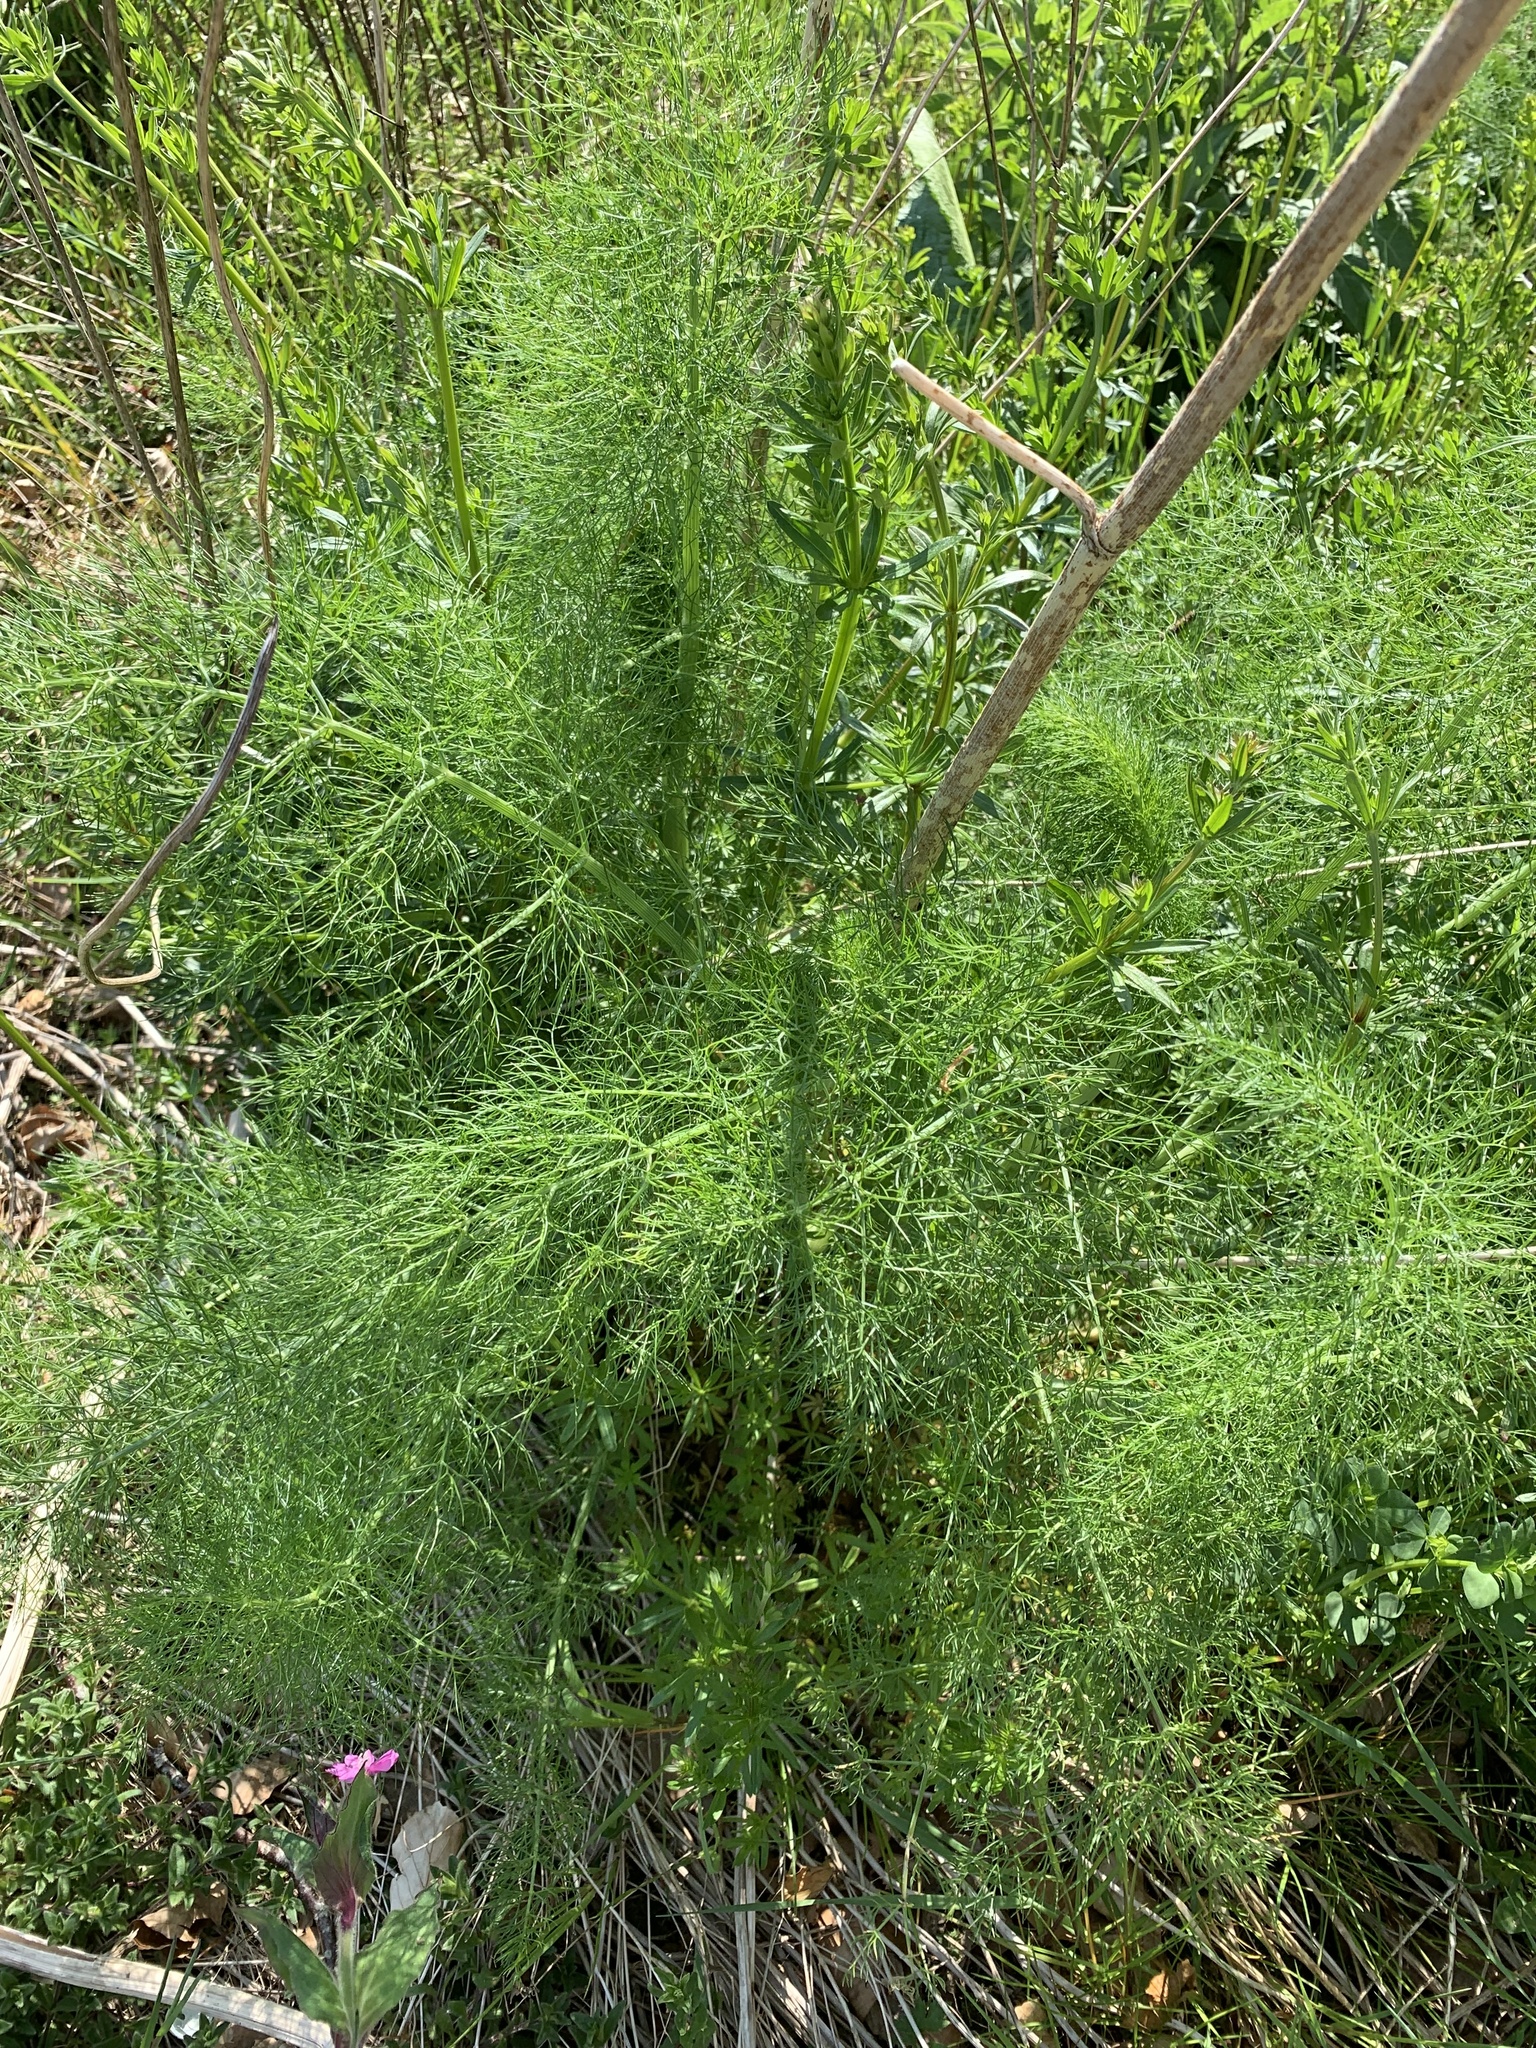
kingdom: Plantae
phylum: Tracheophyta
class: Magnoliopsida
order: Apiales
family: Apiaceae
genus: Foeniculum
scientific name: Foeniculum vulgare
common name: Fennel
